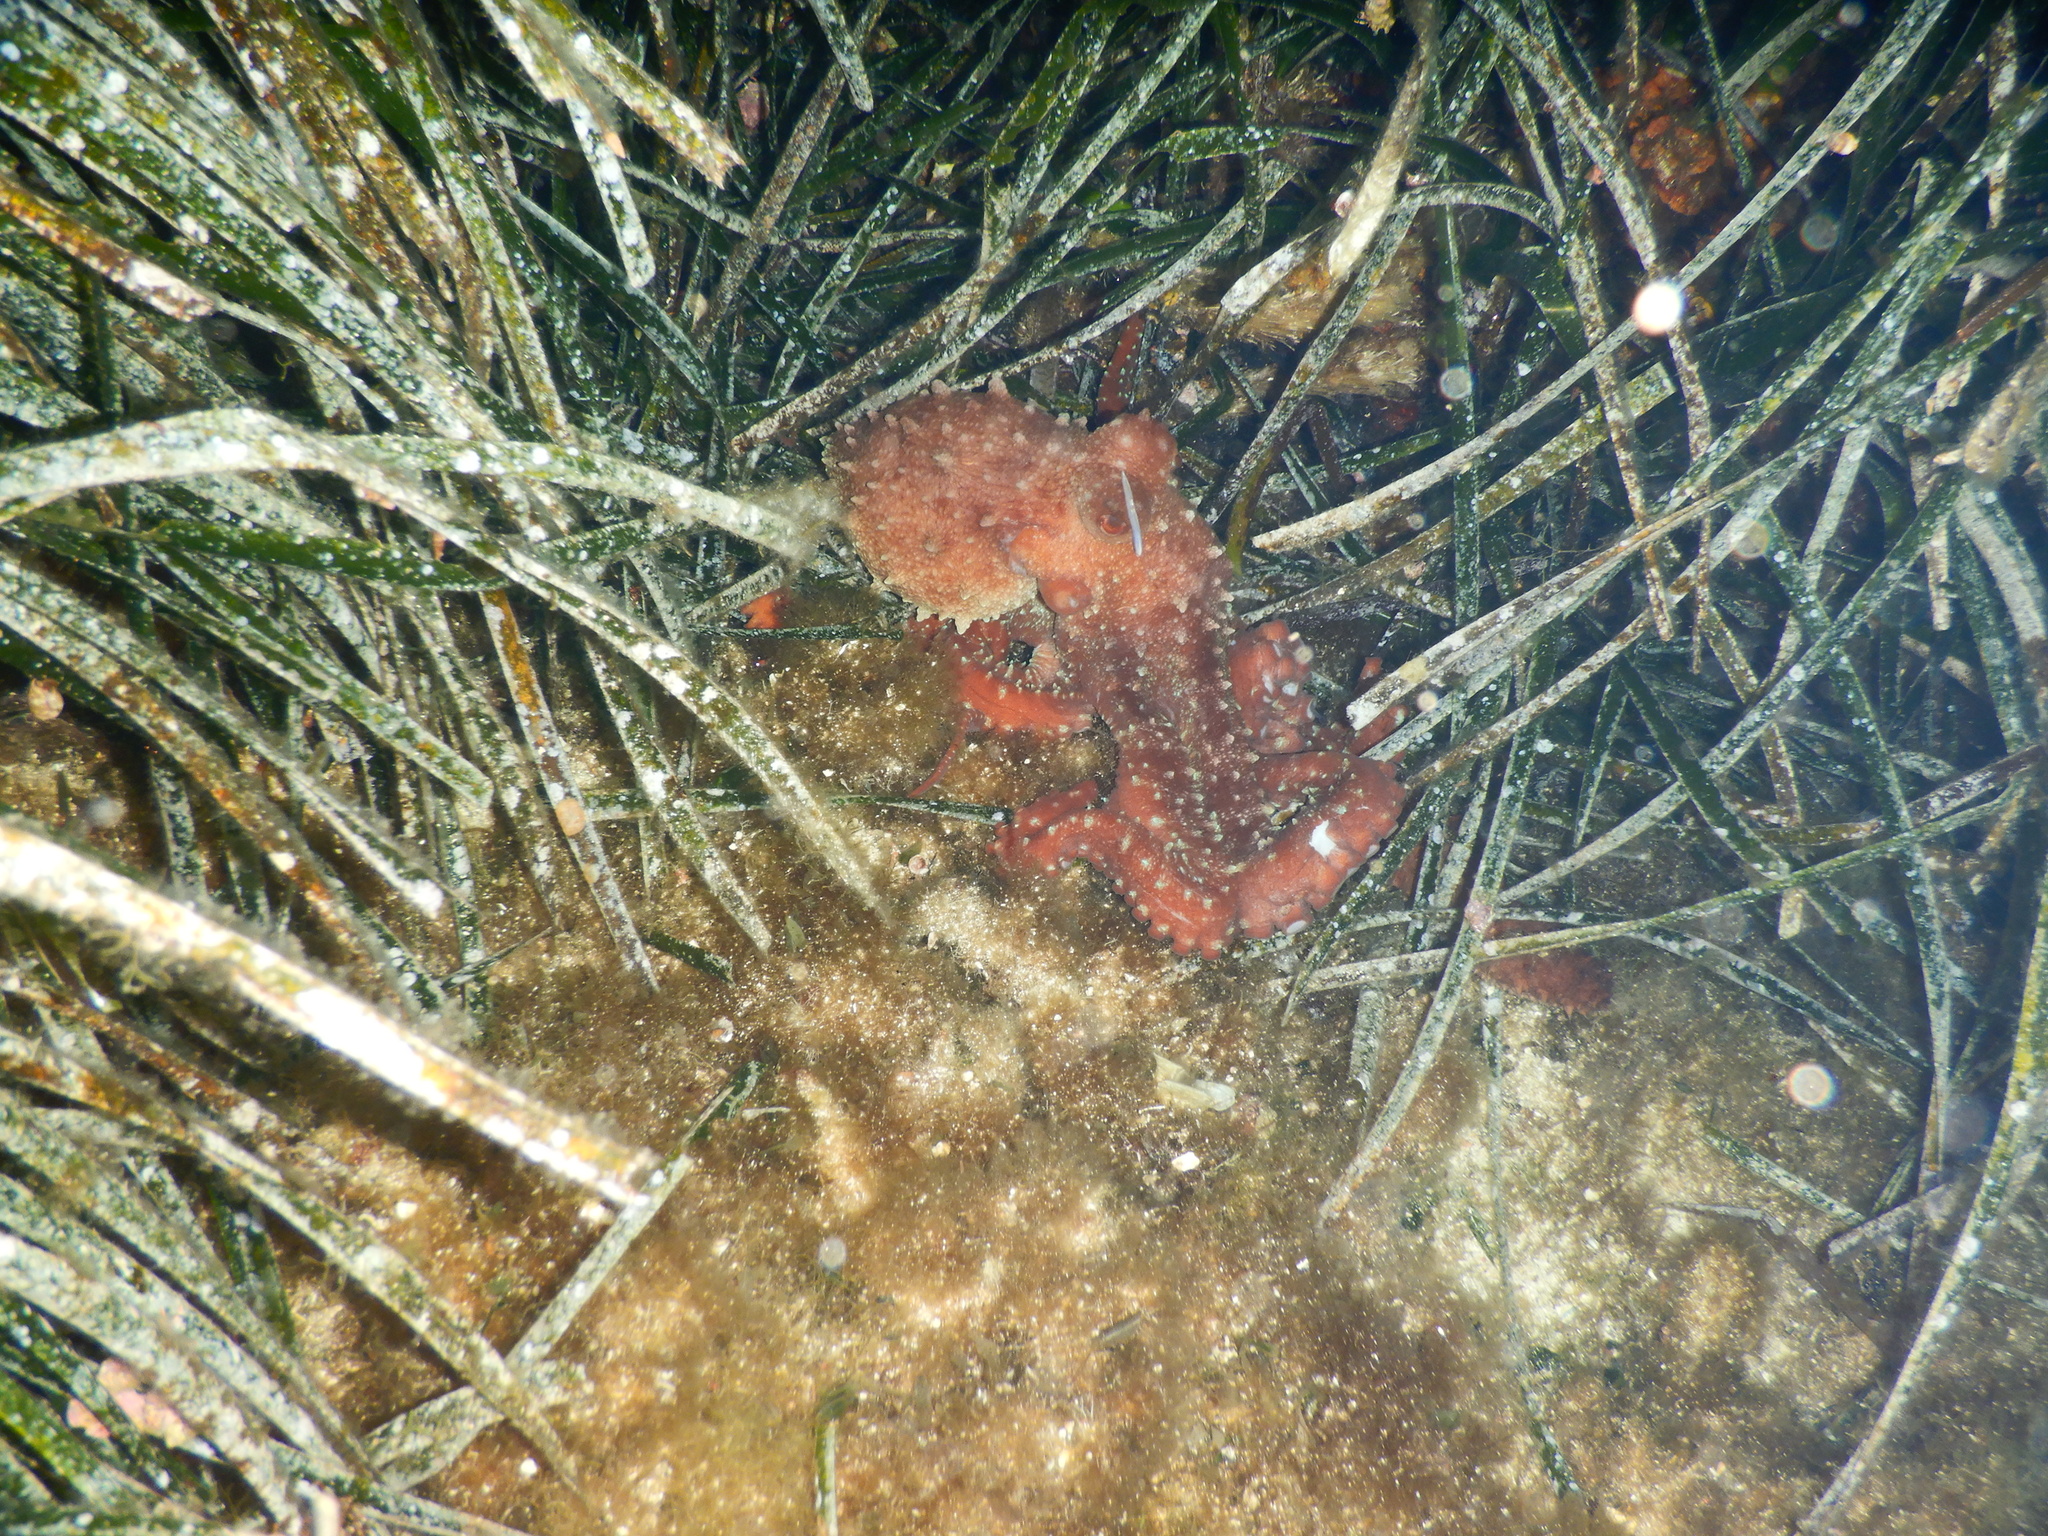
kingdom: Animalia
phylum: Mollusca
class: Cephalopoda
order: Octopoda
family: Octopodidae
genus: Callistoctopus
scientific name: Callistoctopus macropus
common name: Atlantic white-spotted octopus
